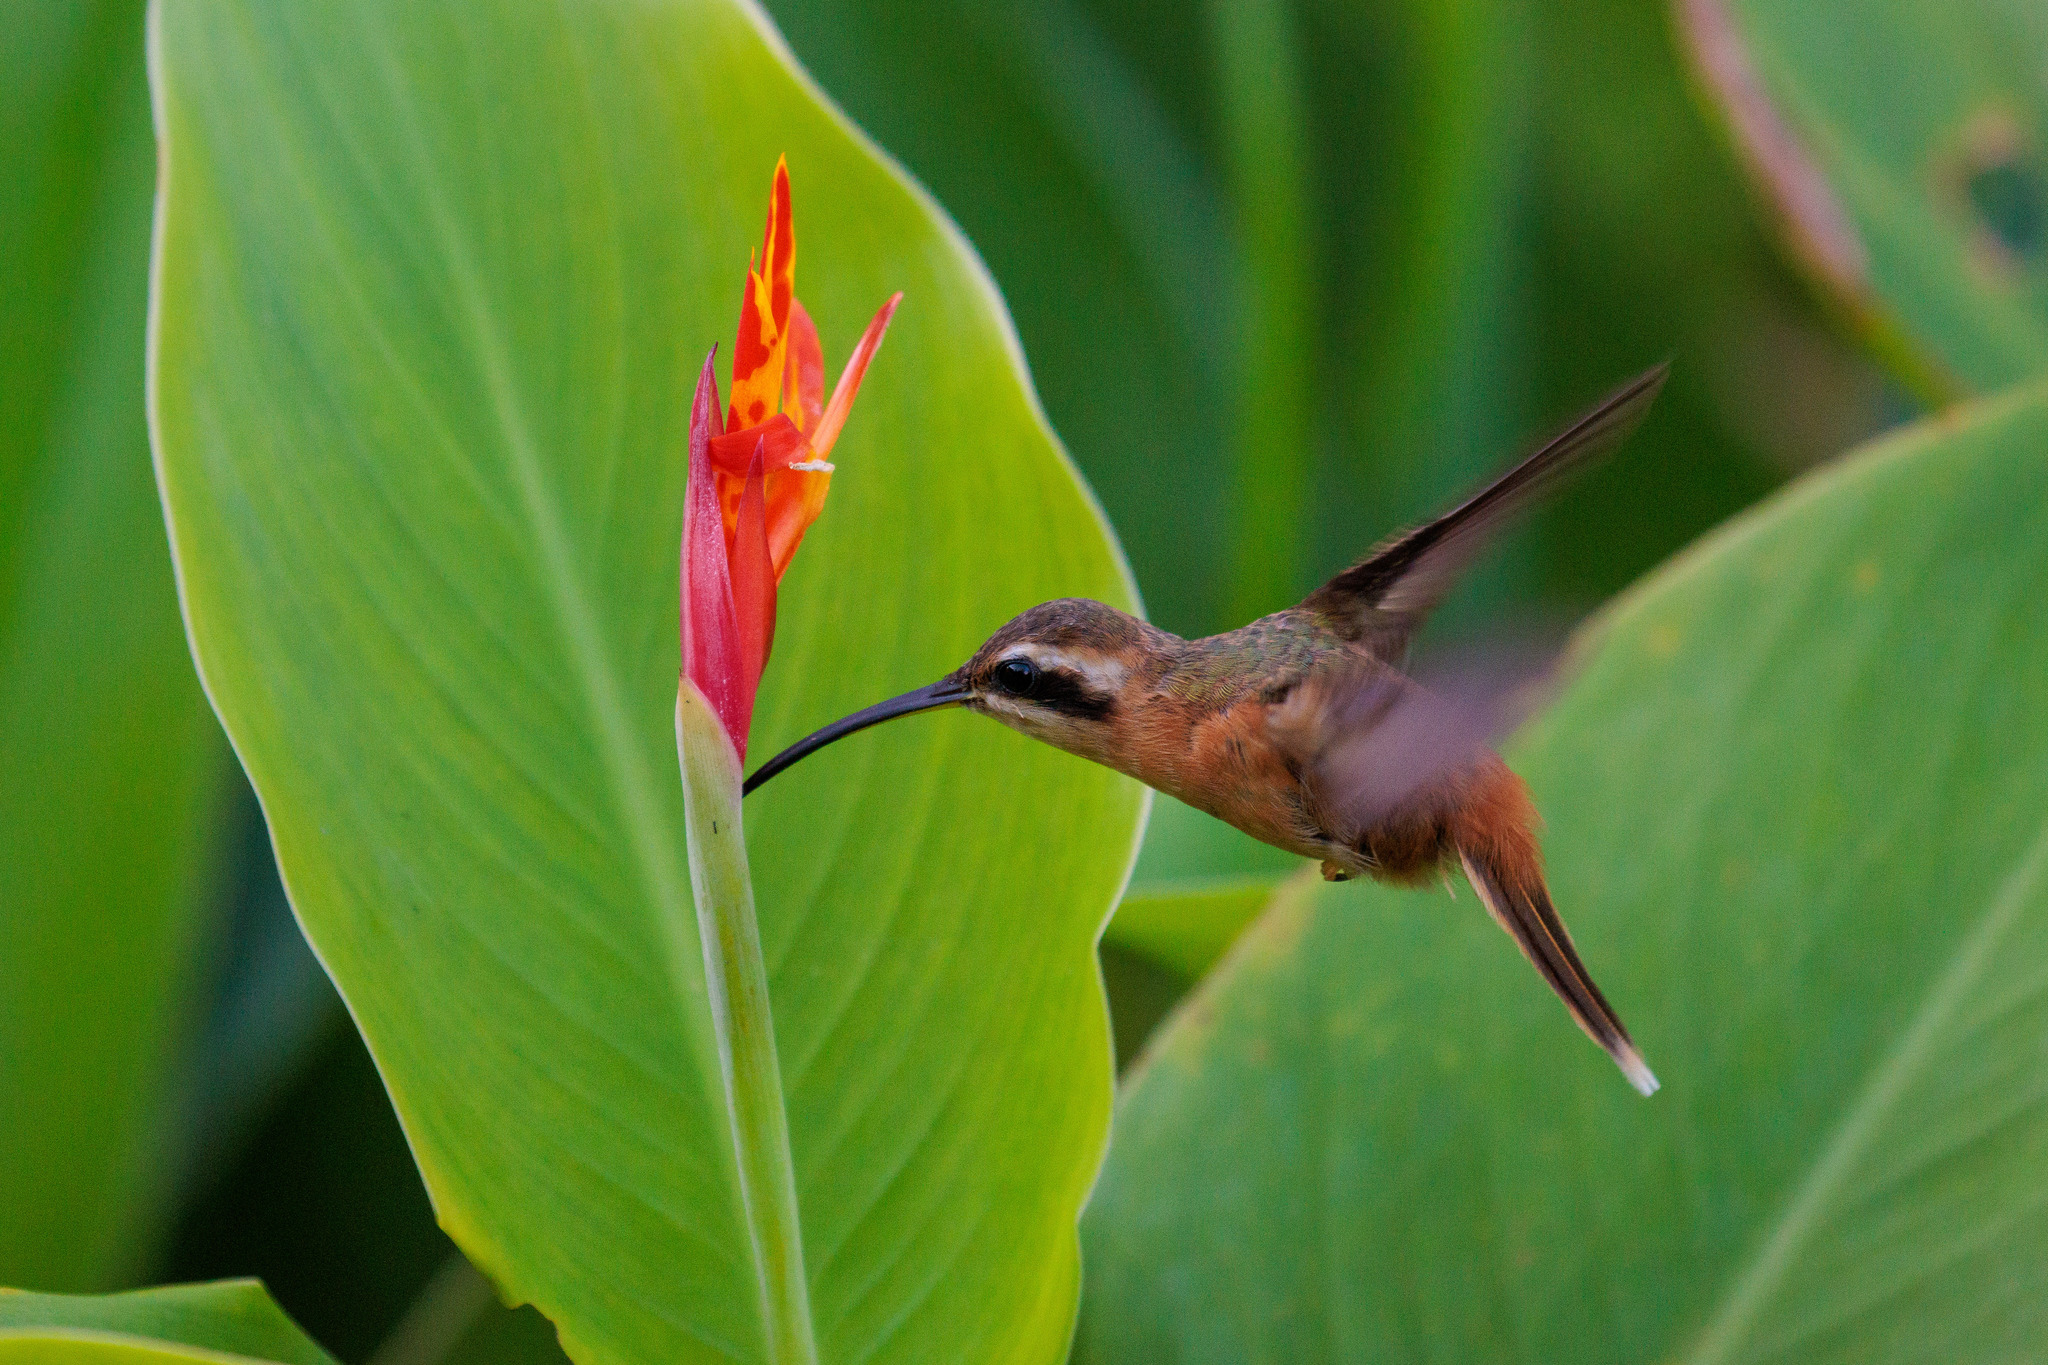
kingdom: Animalia
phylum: Chordata
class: Aves
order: Apodiformes
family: Trochilidae
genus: Phaethornis
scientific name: Phaethornis ruber
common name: Reddish hermit
